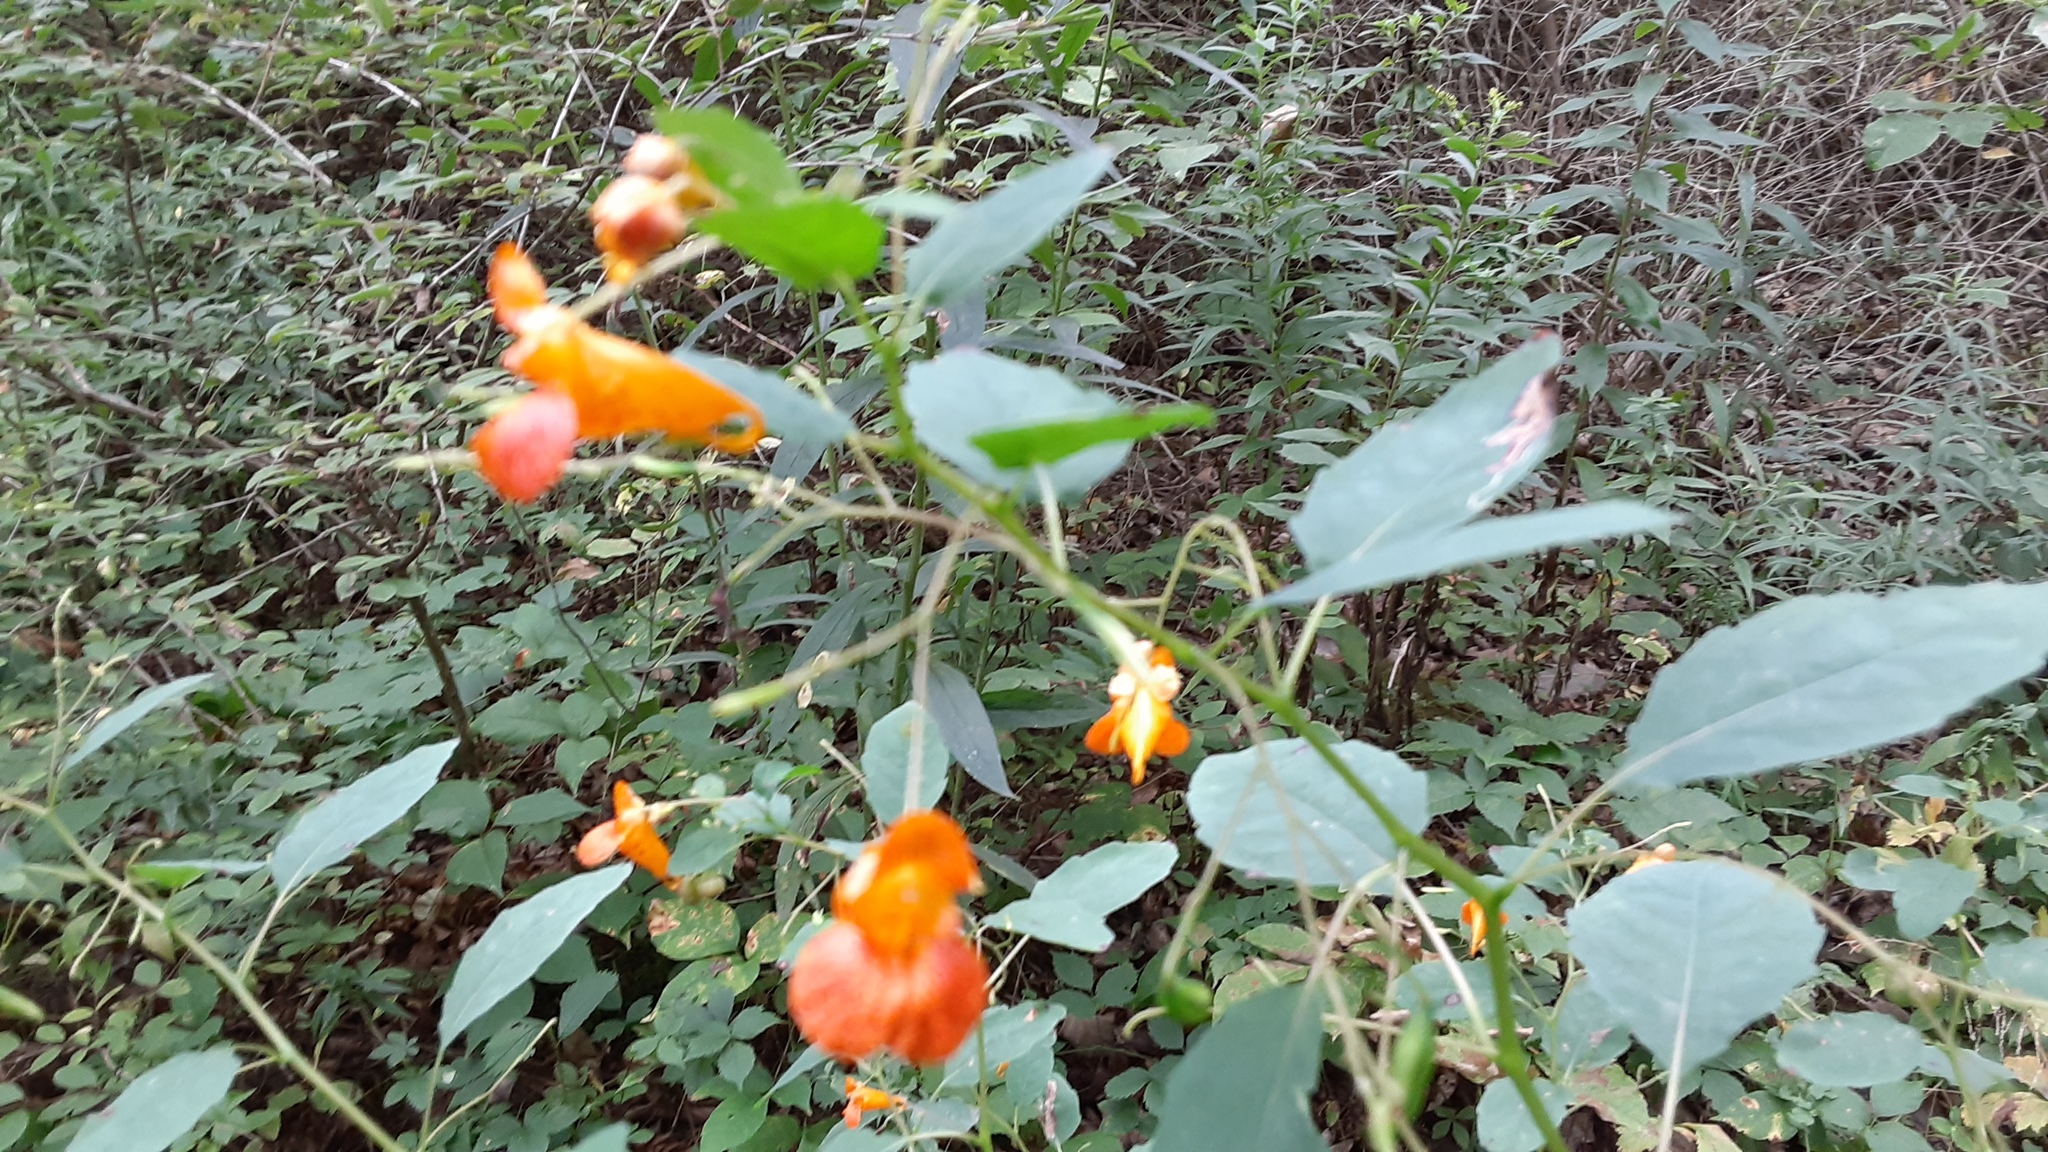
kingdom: Plantae
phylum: Tracheophyta
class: Magnoliopsida
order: Ericales
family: Balsaminaceae
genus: Impatiens
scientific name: Impatiens capensis
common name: Orange balsam
